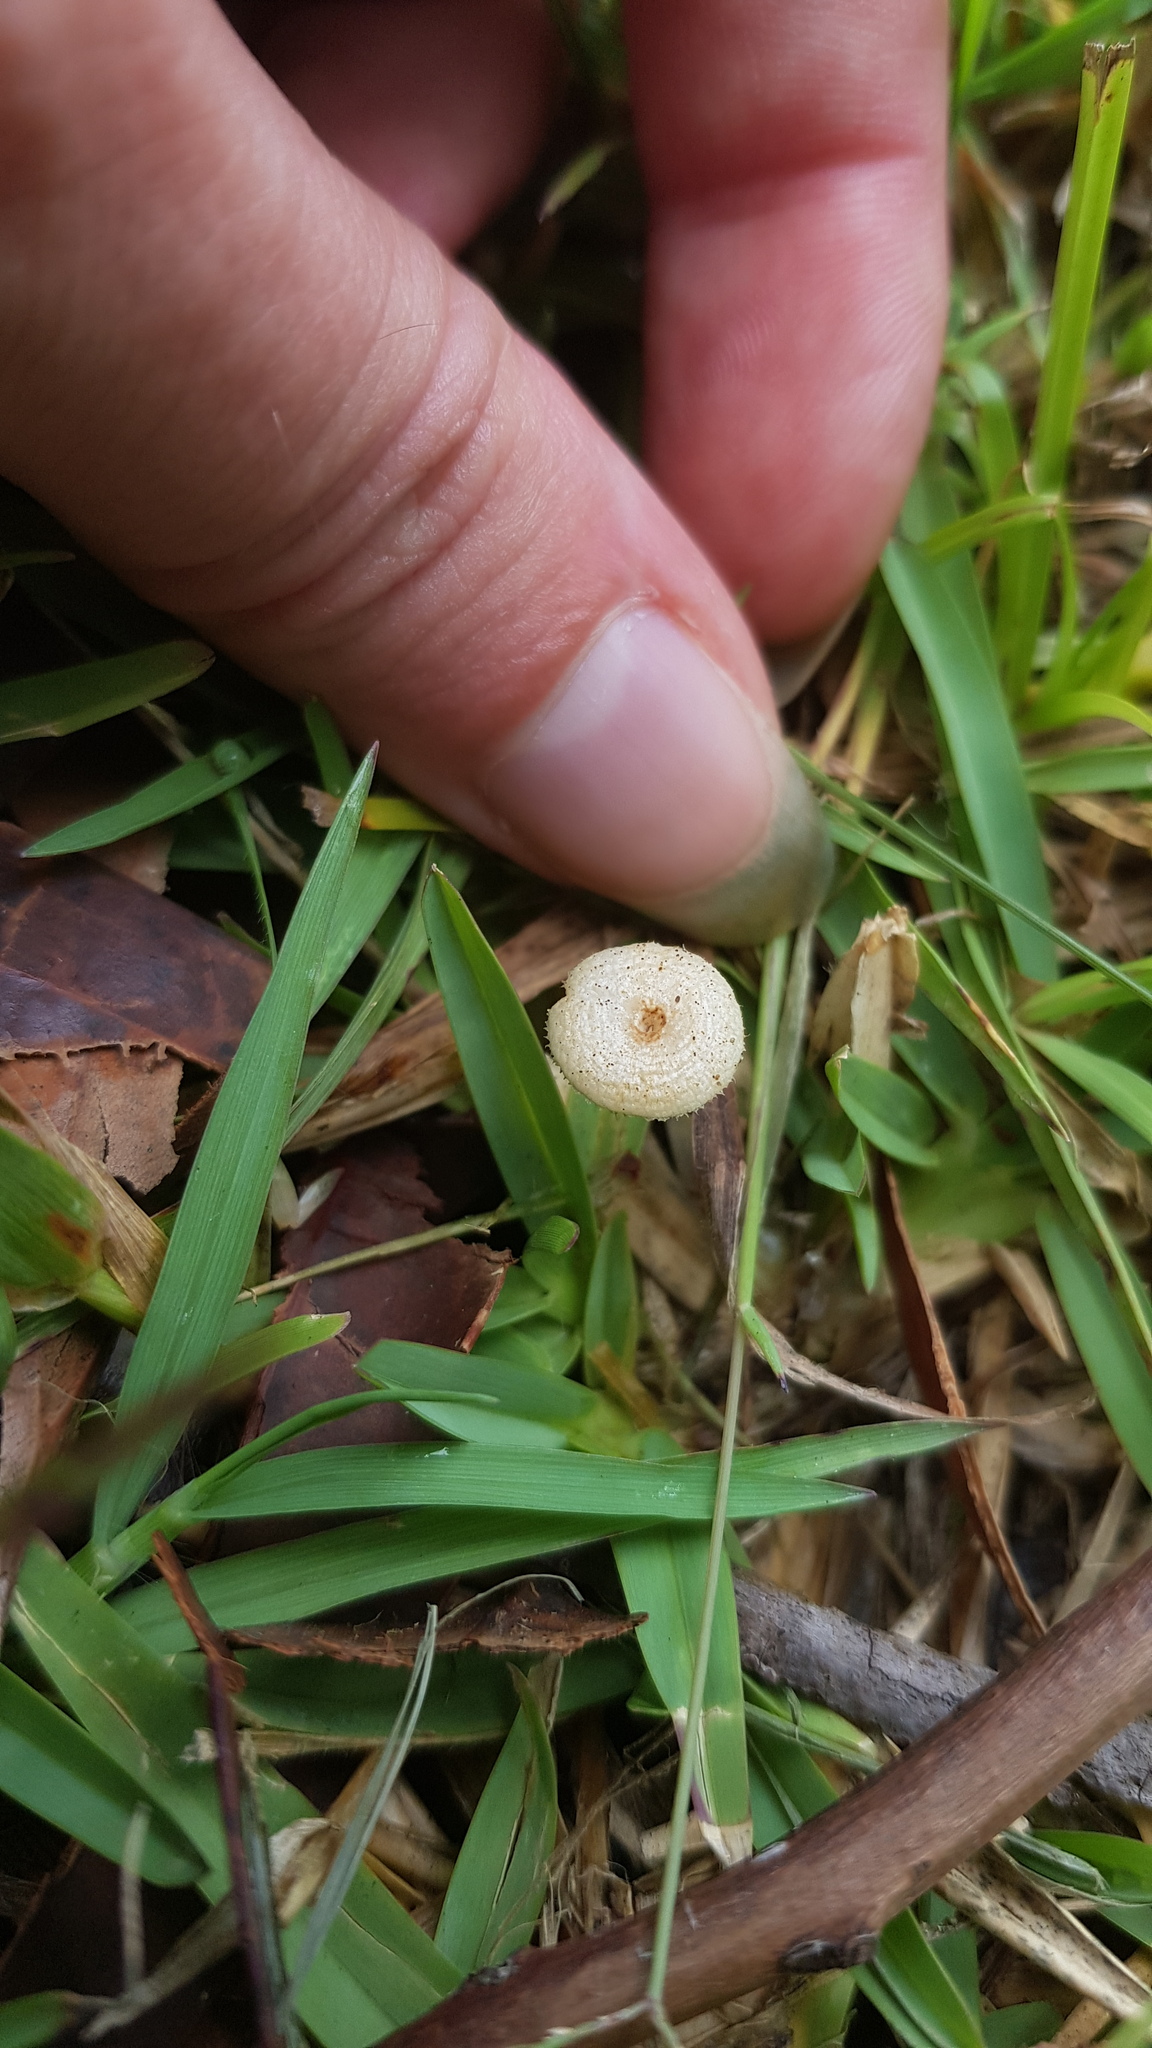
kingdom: Fungi
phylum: Basidiomycota
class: Agaricomycetes
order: Polyporales
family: Polyporaceae
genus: Lentinus
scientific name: Lentinus arcularius
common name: Spring polypore
